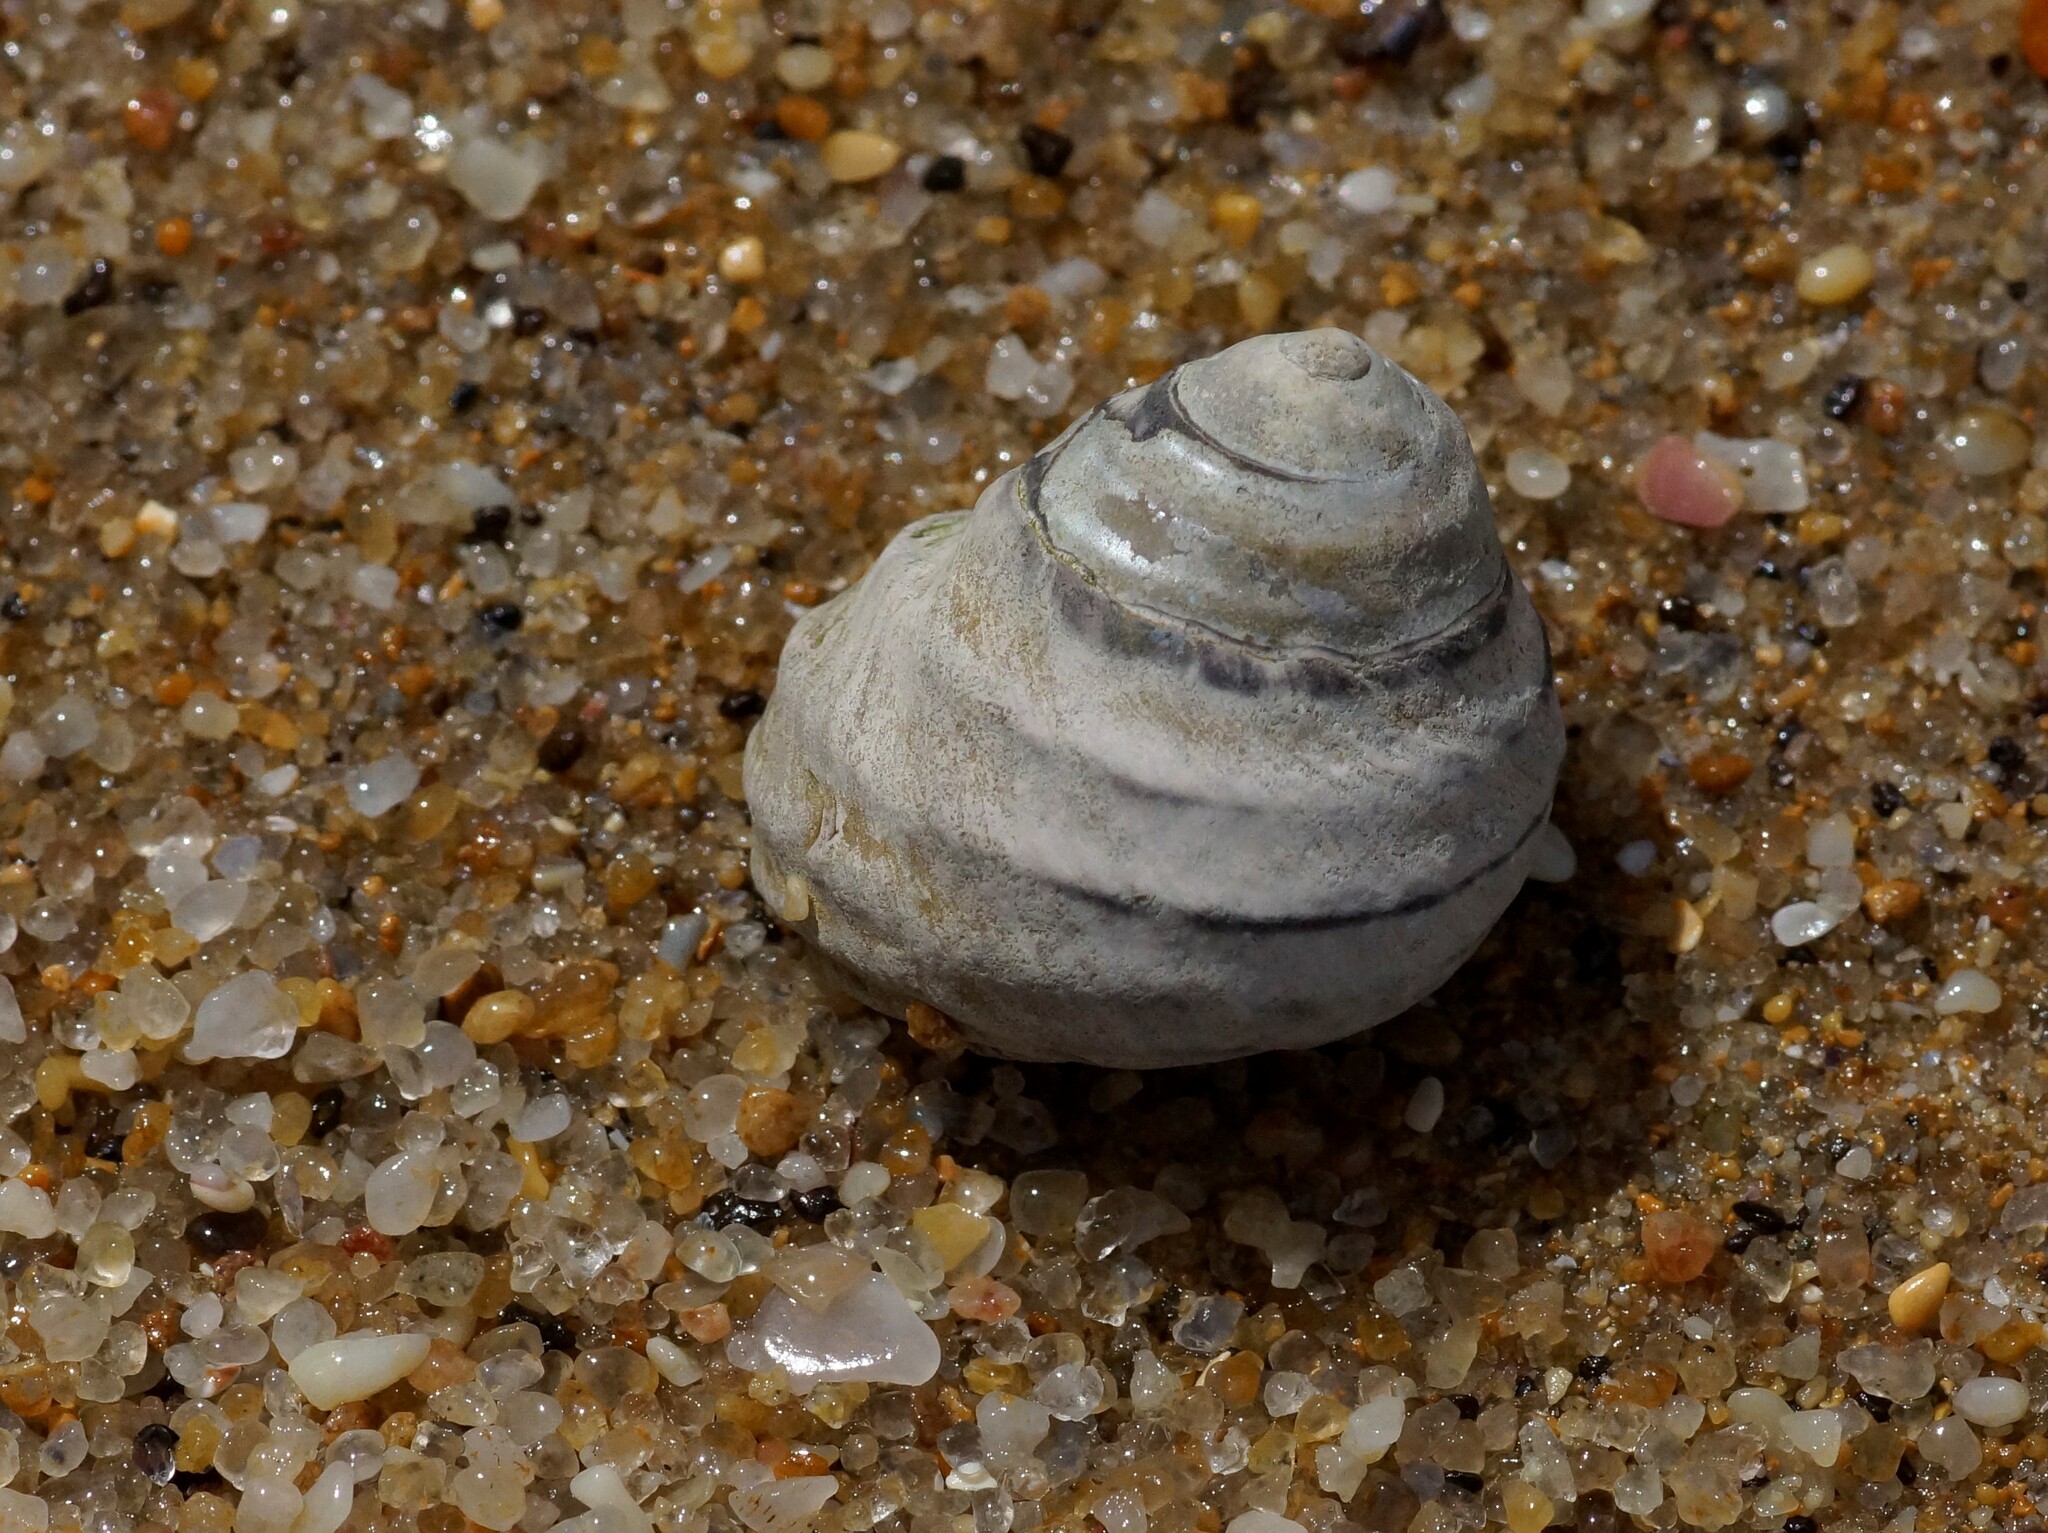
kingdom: Animalia
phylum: Mollusca
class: Gastropoda
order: Trochida
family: Trochidae
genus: Austrocochlea
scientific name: Austrocochlea constricta
